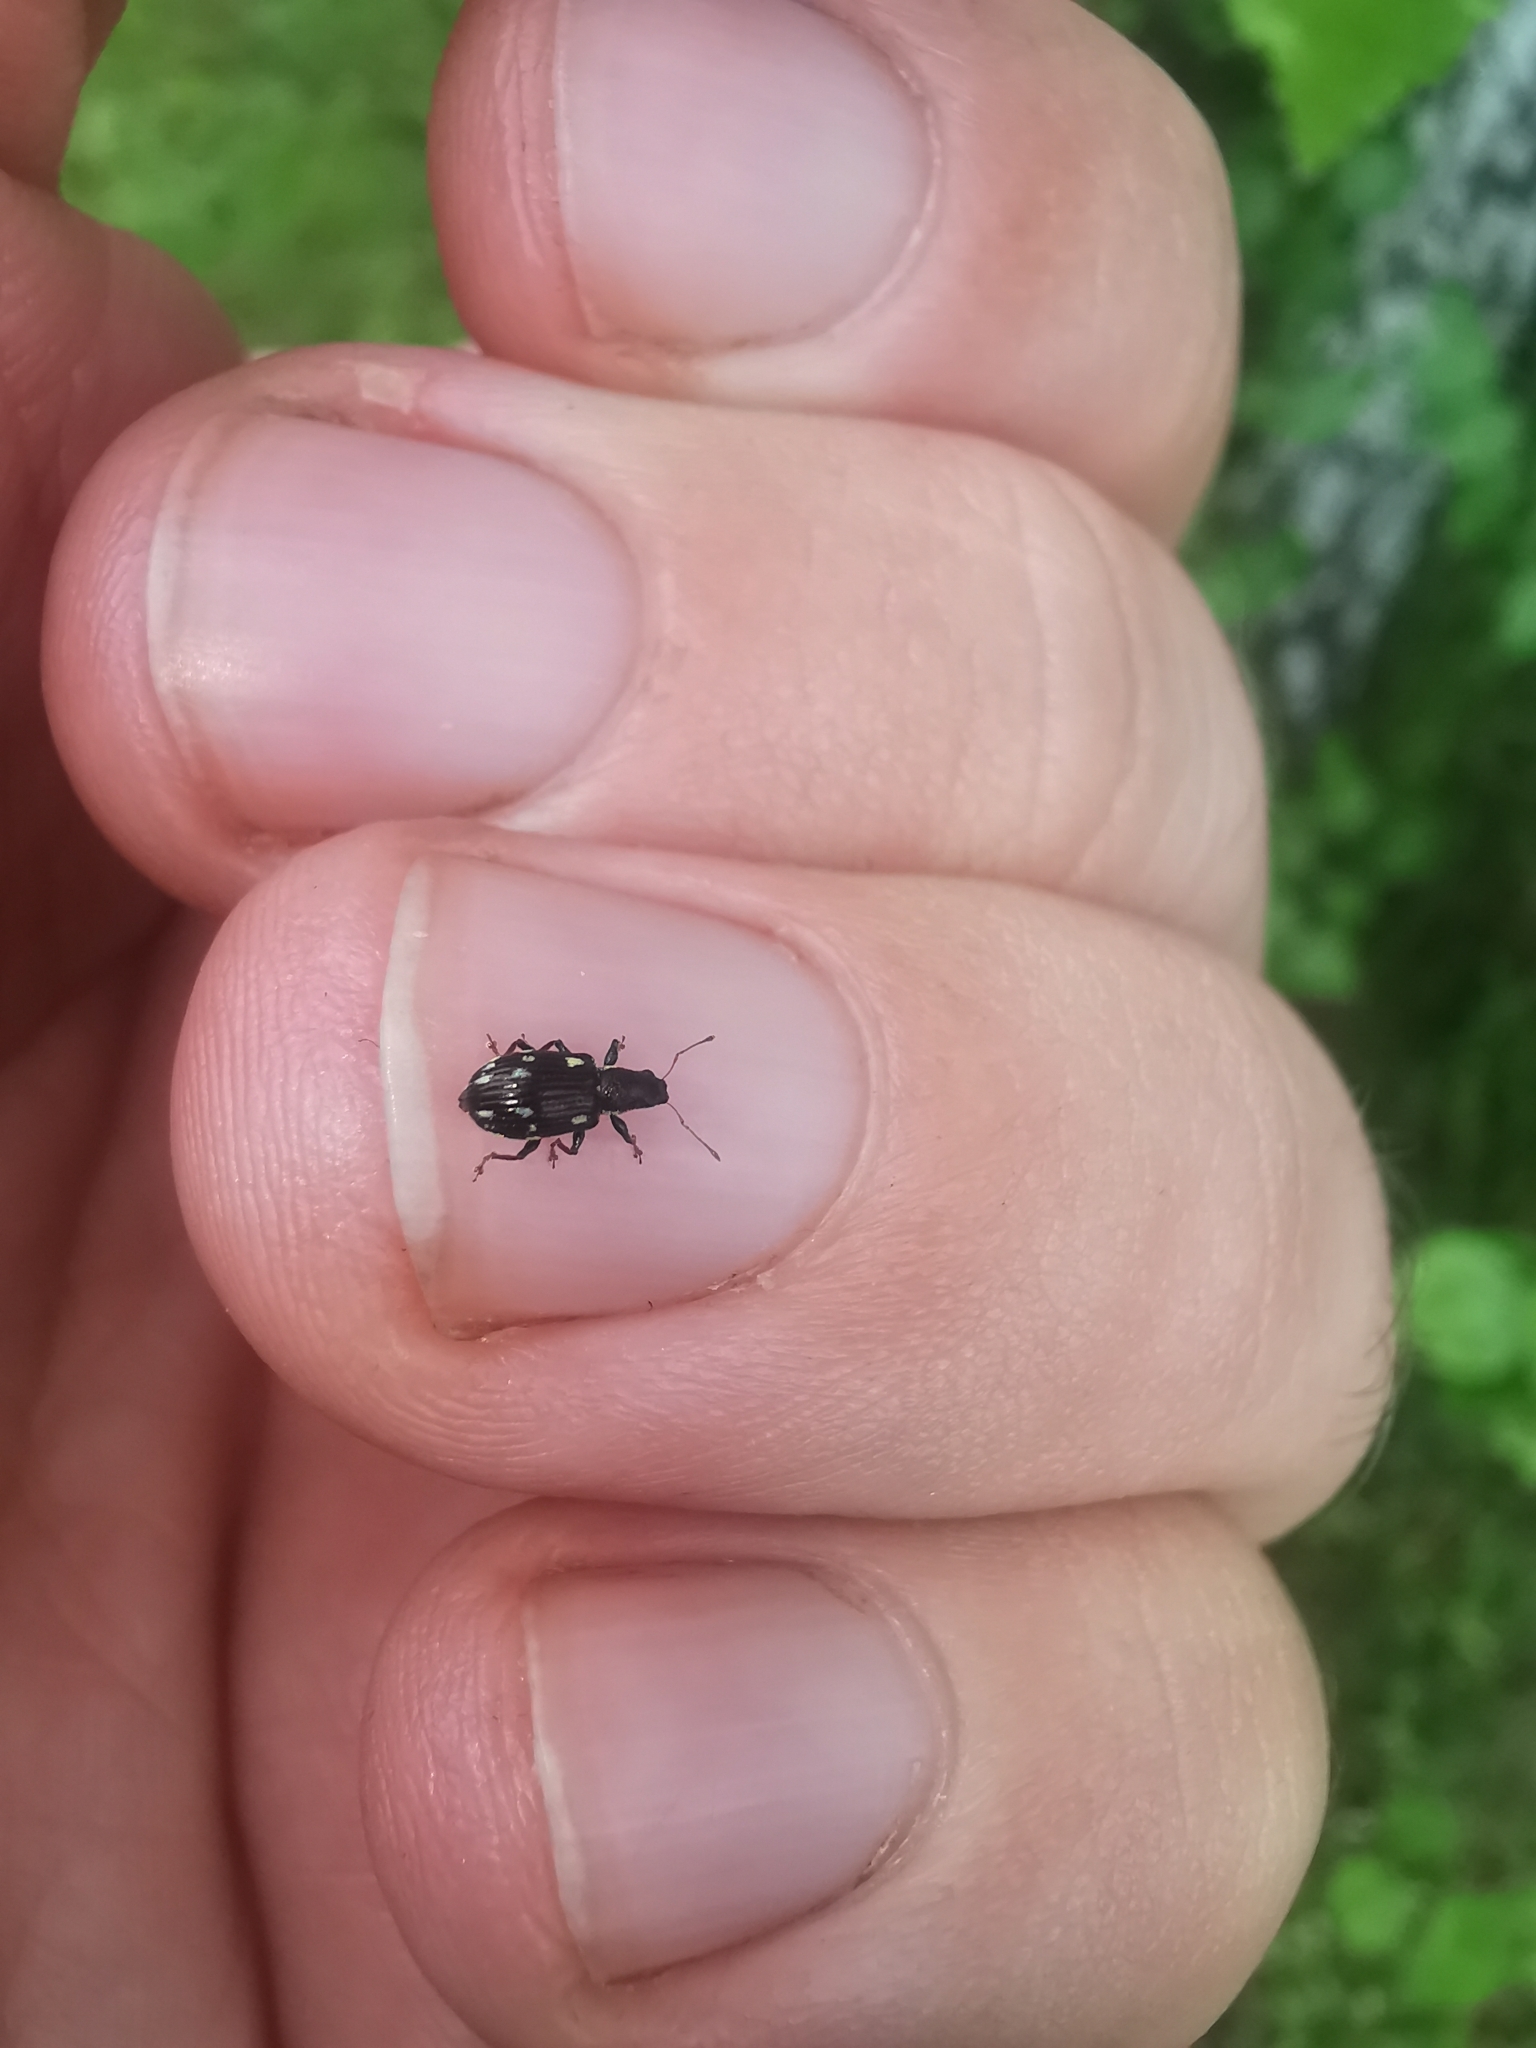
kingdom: Animalia
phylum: Arthropoda
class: Insecta
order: Coleoptera
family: Curculionidae
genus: Polydrusus
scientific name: Polydrusus picus
